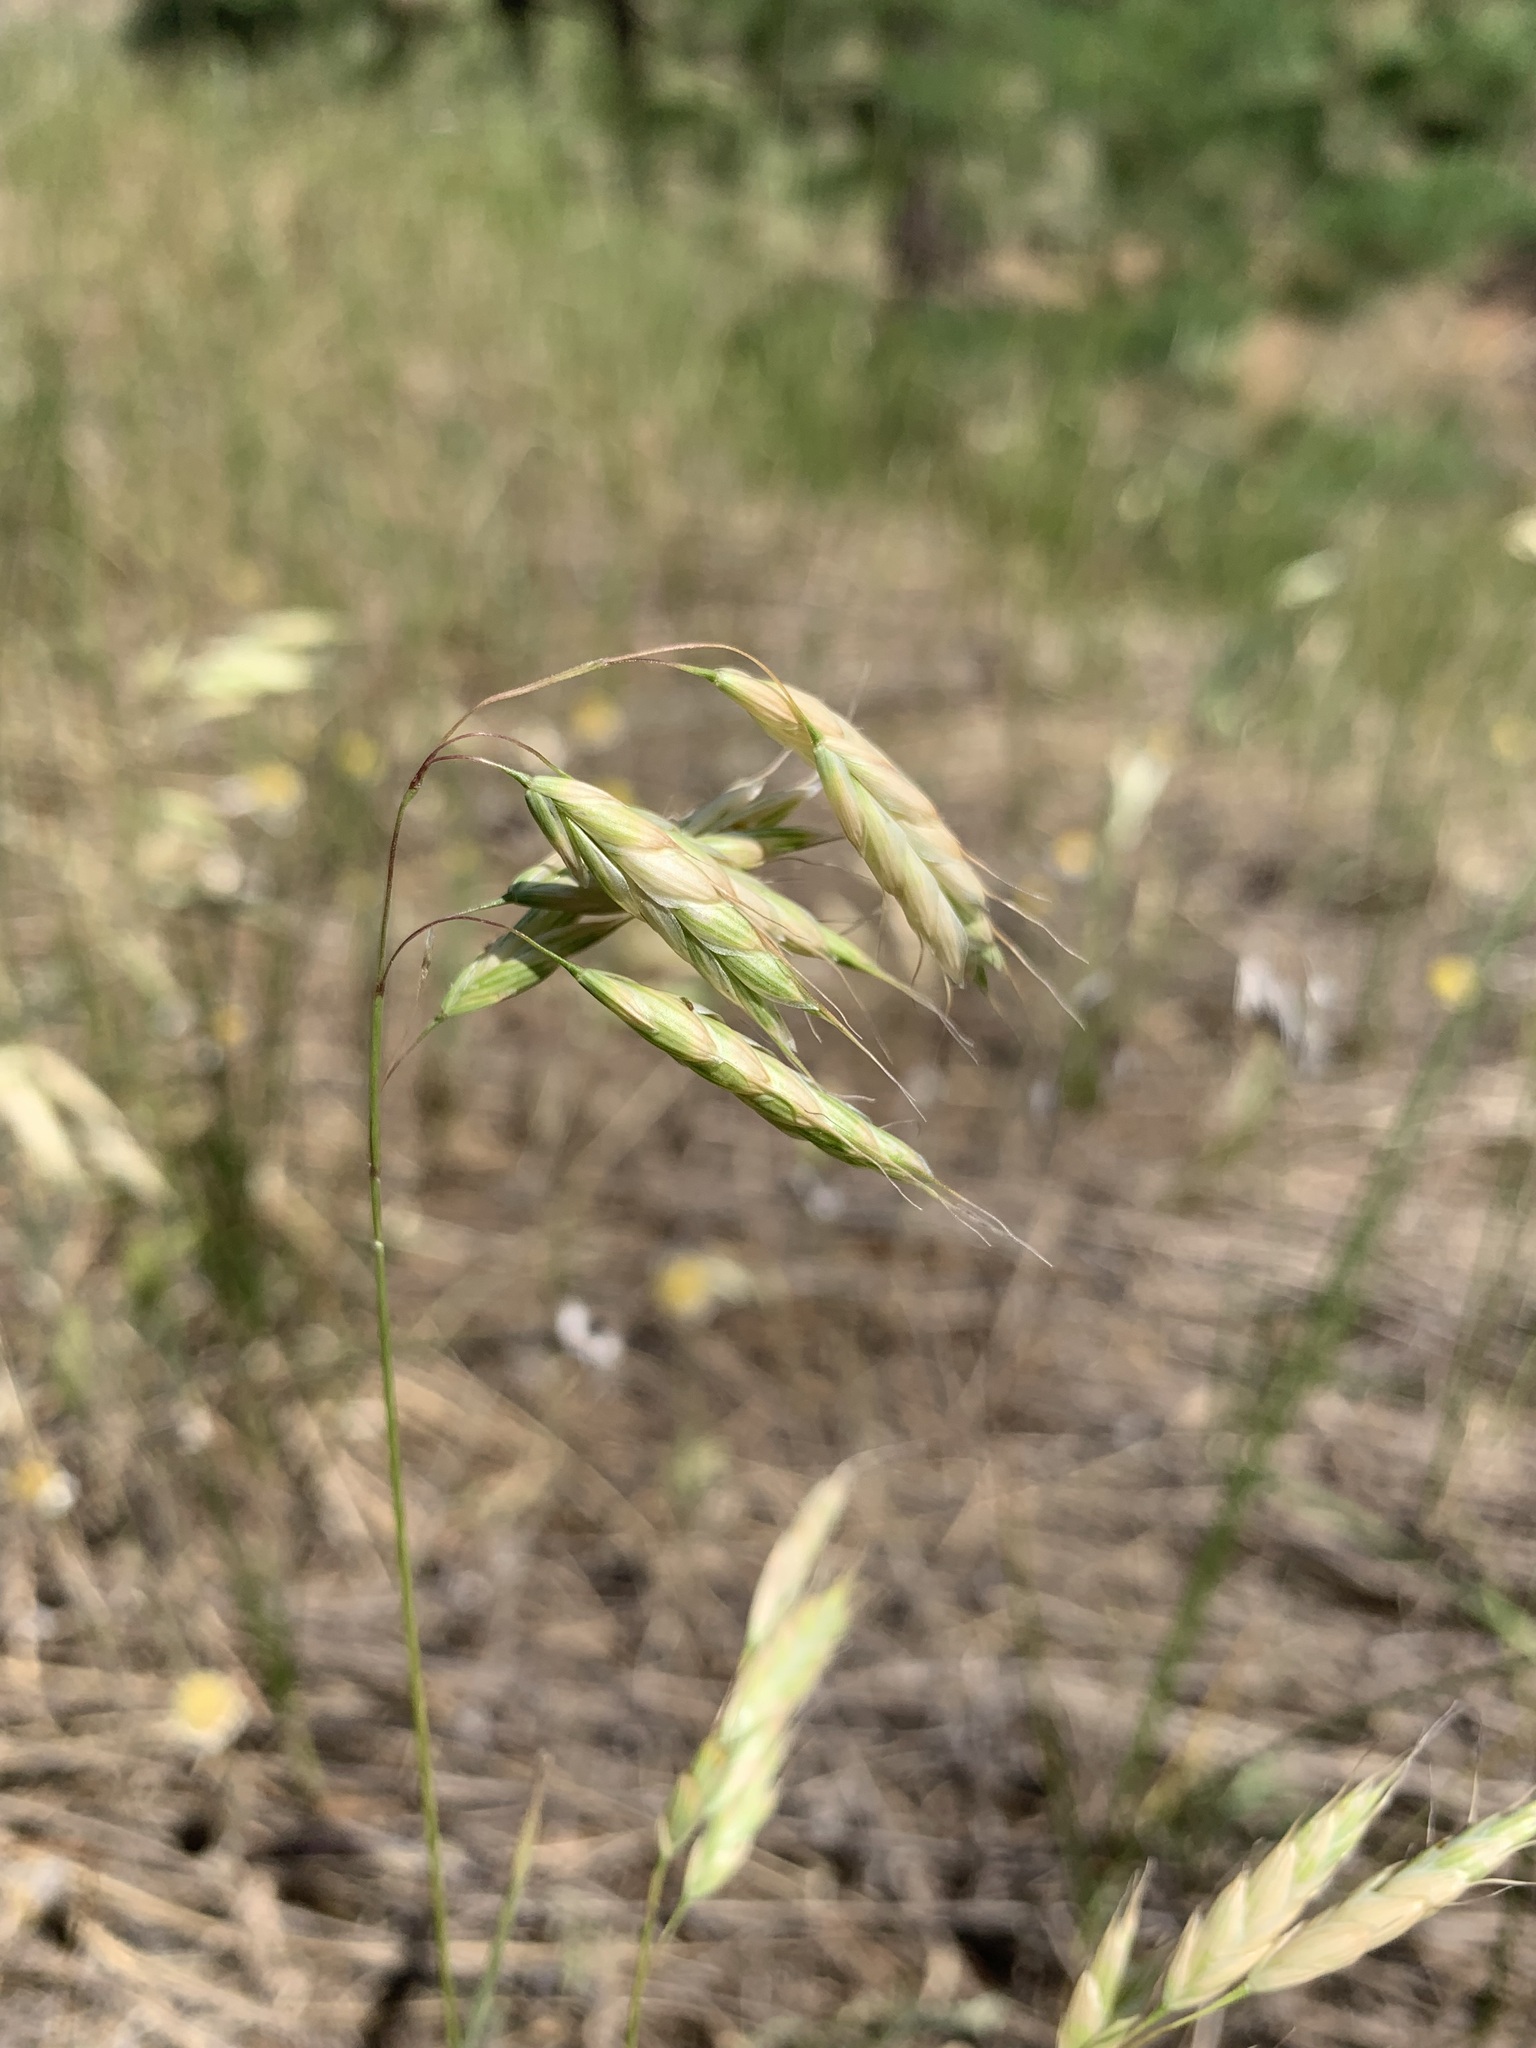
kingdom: Plantae
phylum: Tracheophyta
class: Liliopsida
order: Poales
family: Poaceae
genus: Bromus
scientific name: Bromus squarrosus
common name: Corn brome
